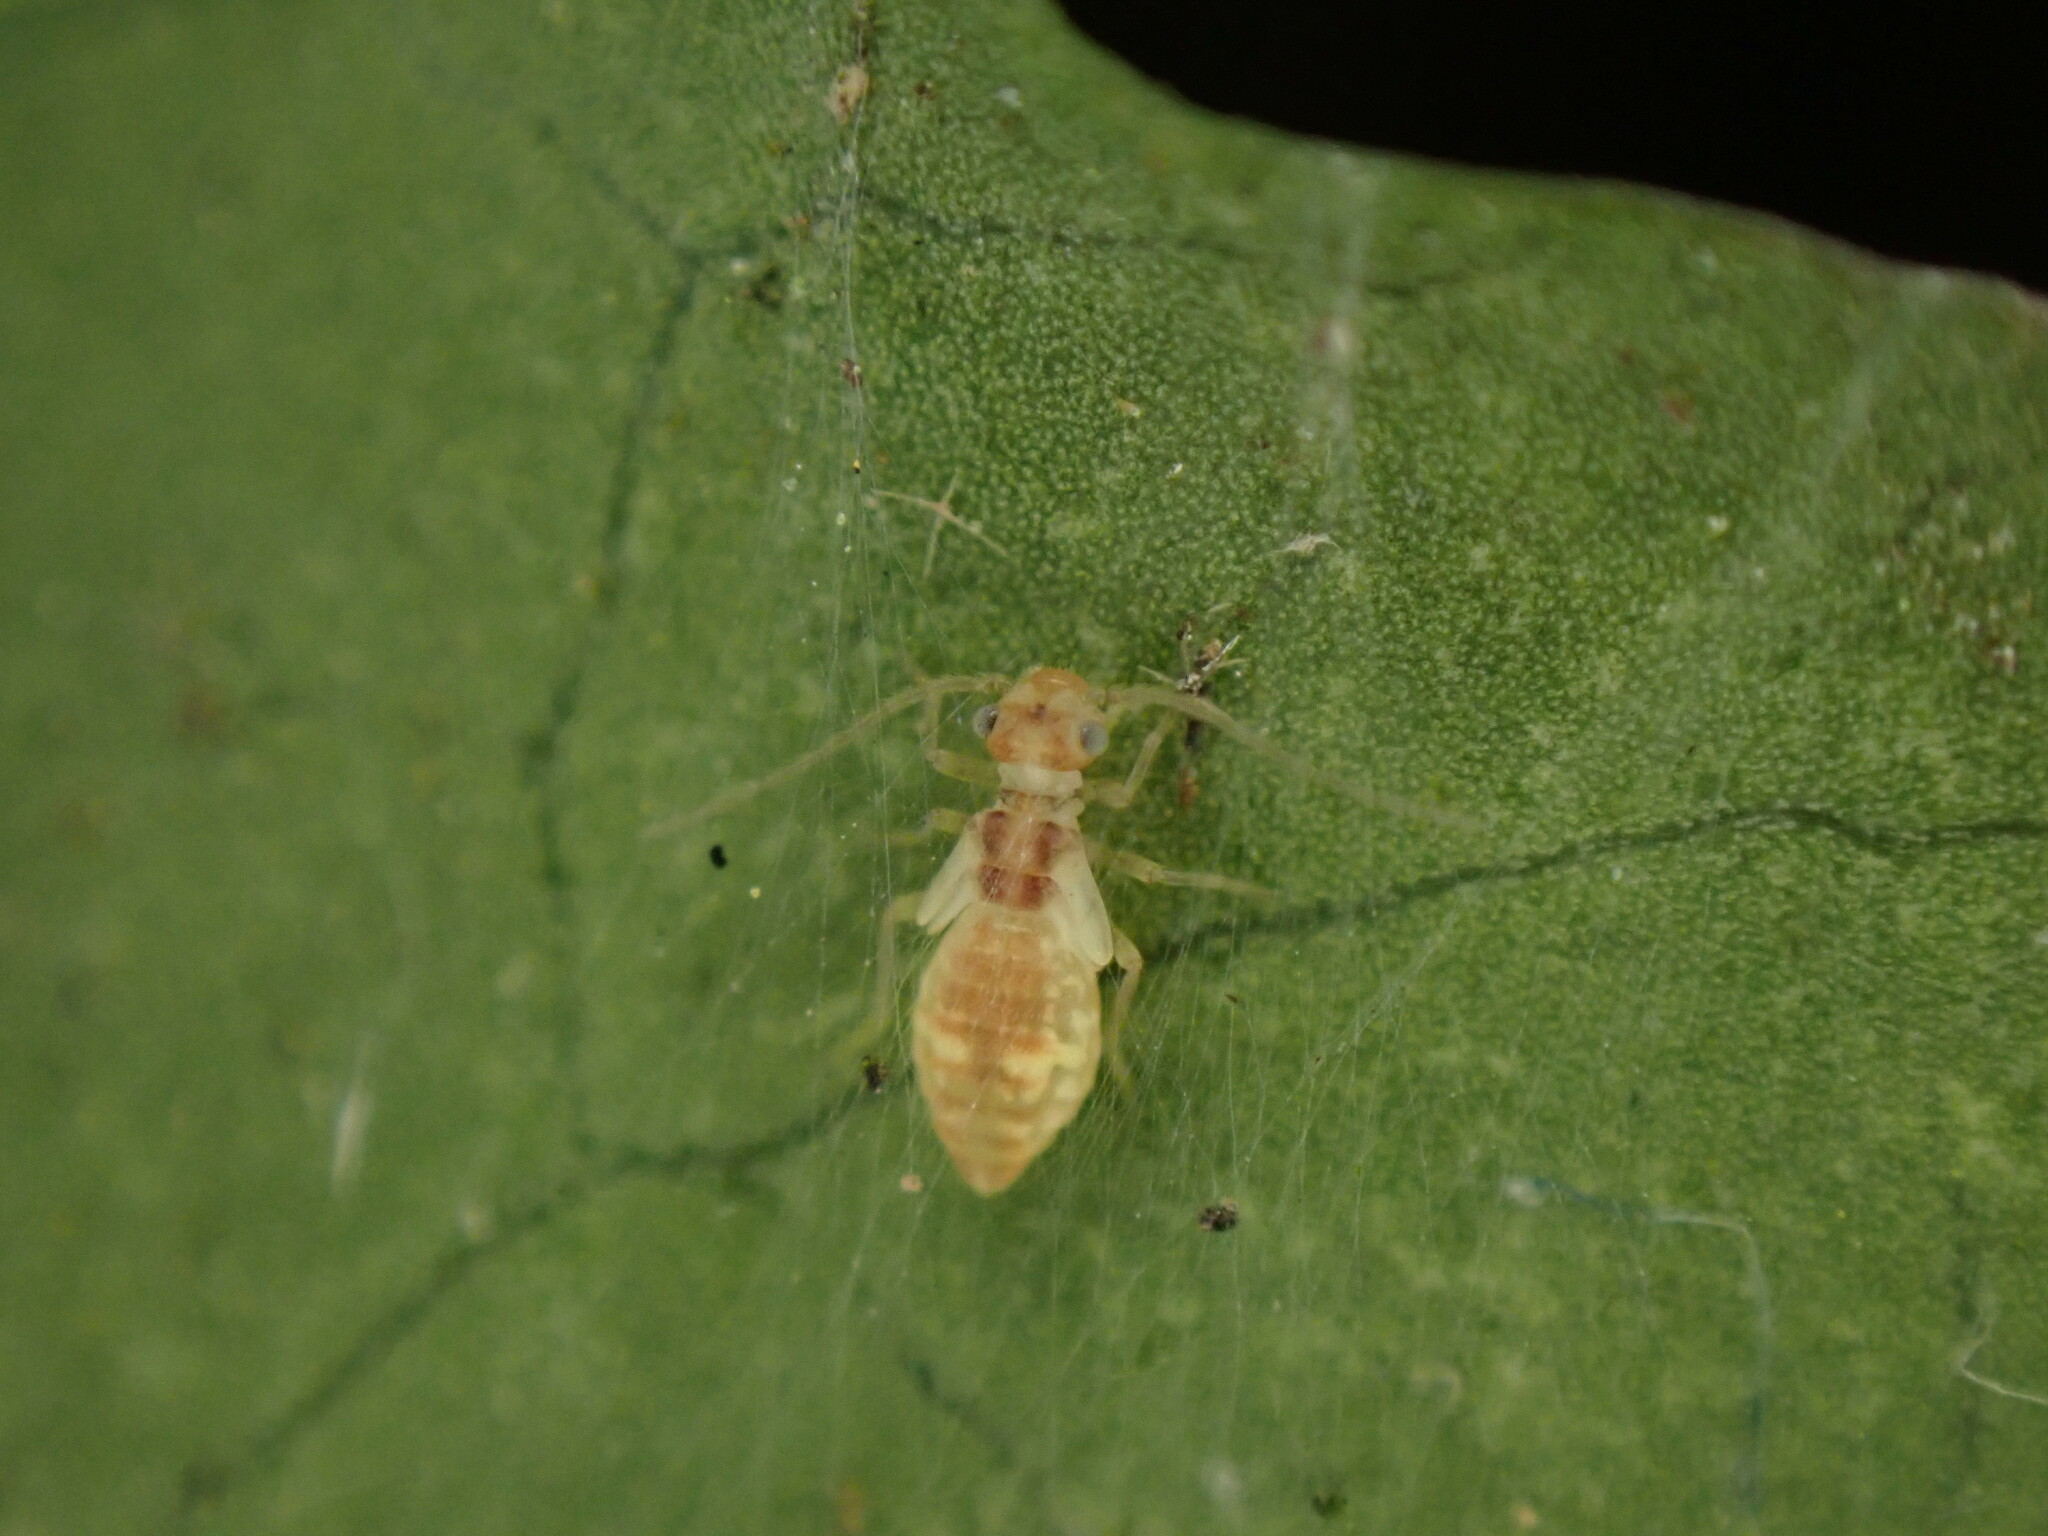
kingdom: Animalia
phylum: Arthropoda
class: Insecta
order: Psocodea
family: Stenopsocidae
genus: Graphopsocus
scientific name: Graphopsocus cruciatus
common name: Lizard bark louse
